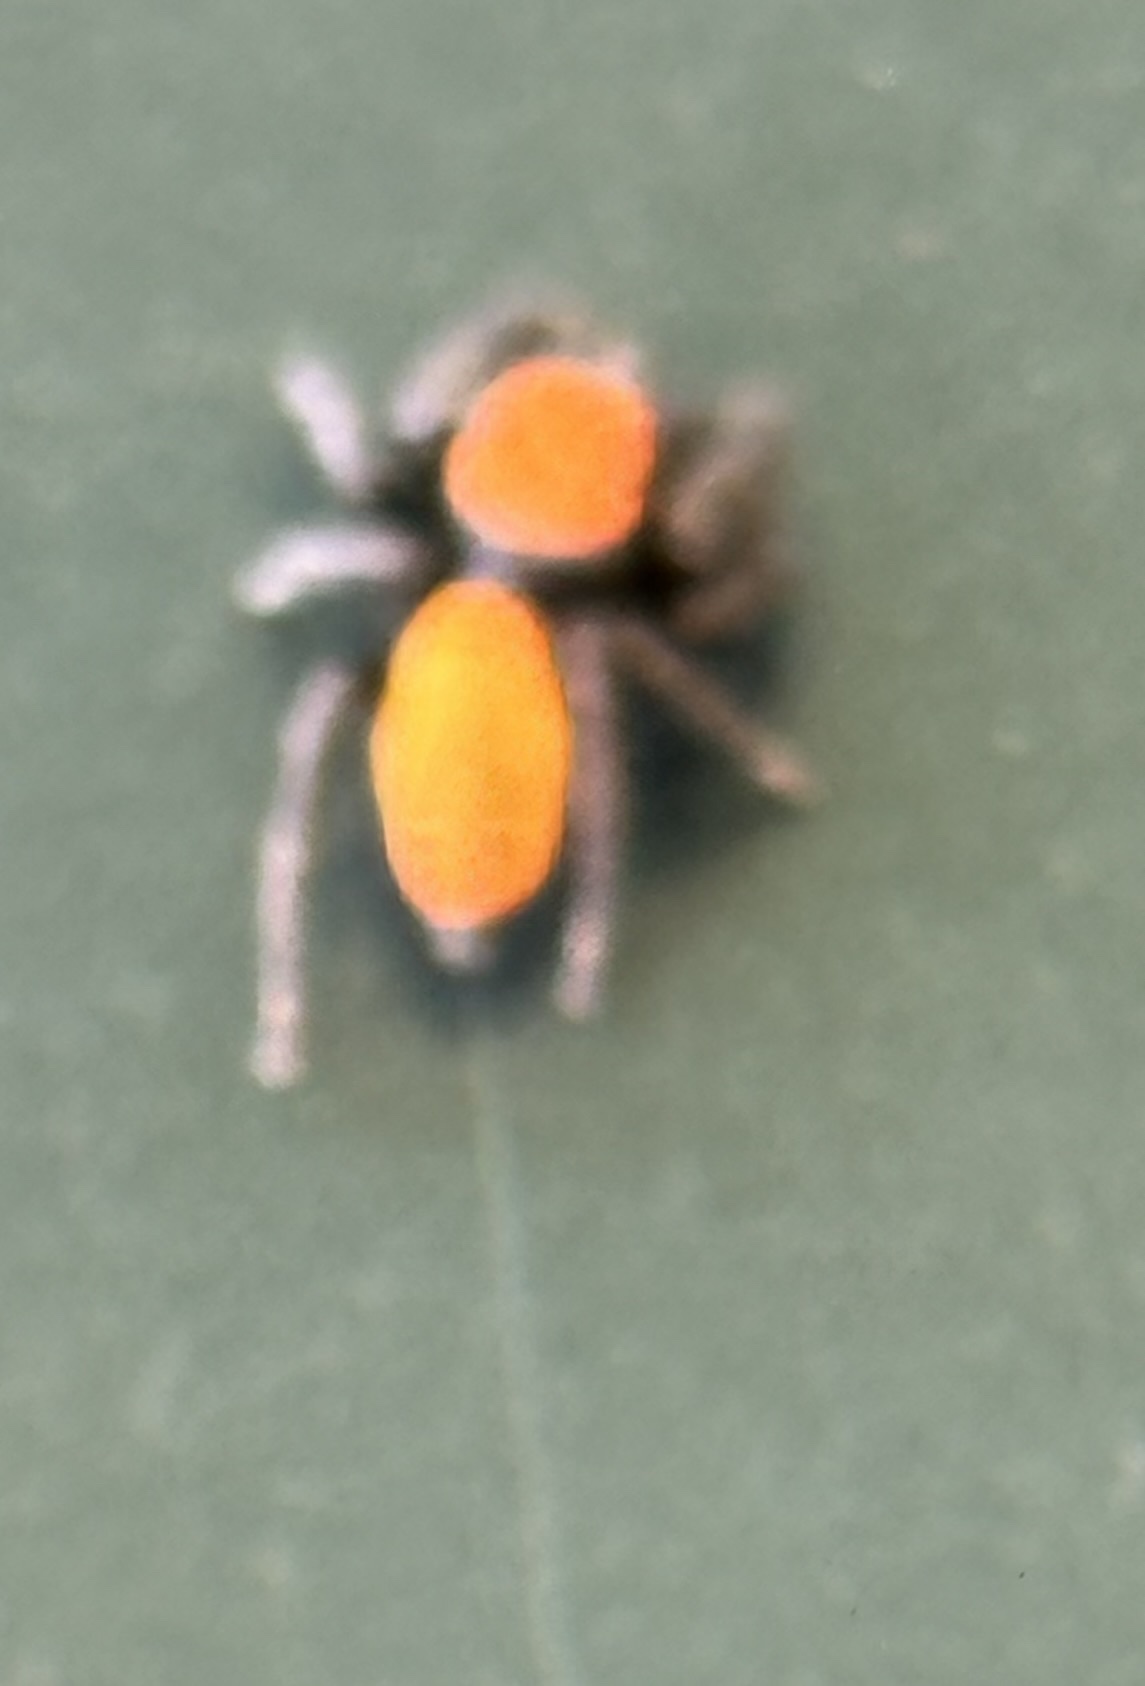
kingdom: Animalia
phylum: Arthropoda
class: Arachnida
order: Araneae
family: Salticidae
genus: Phidippus
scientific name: Phidippus apacheanus
